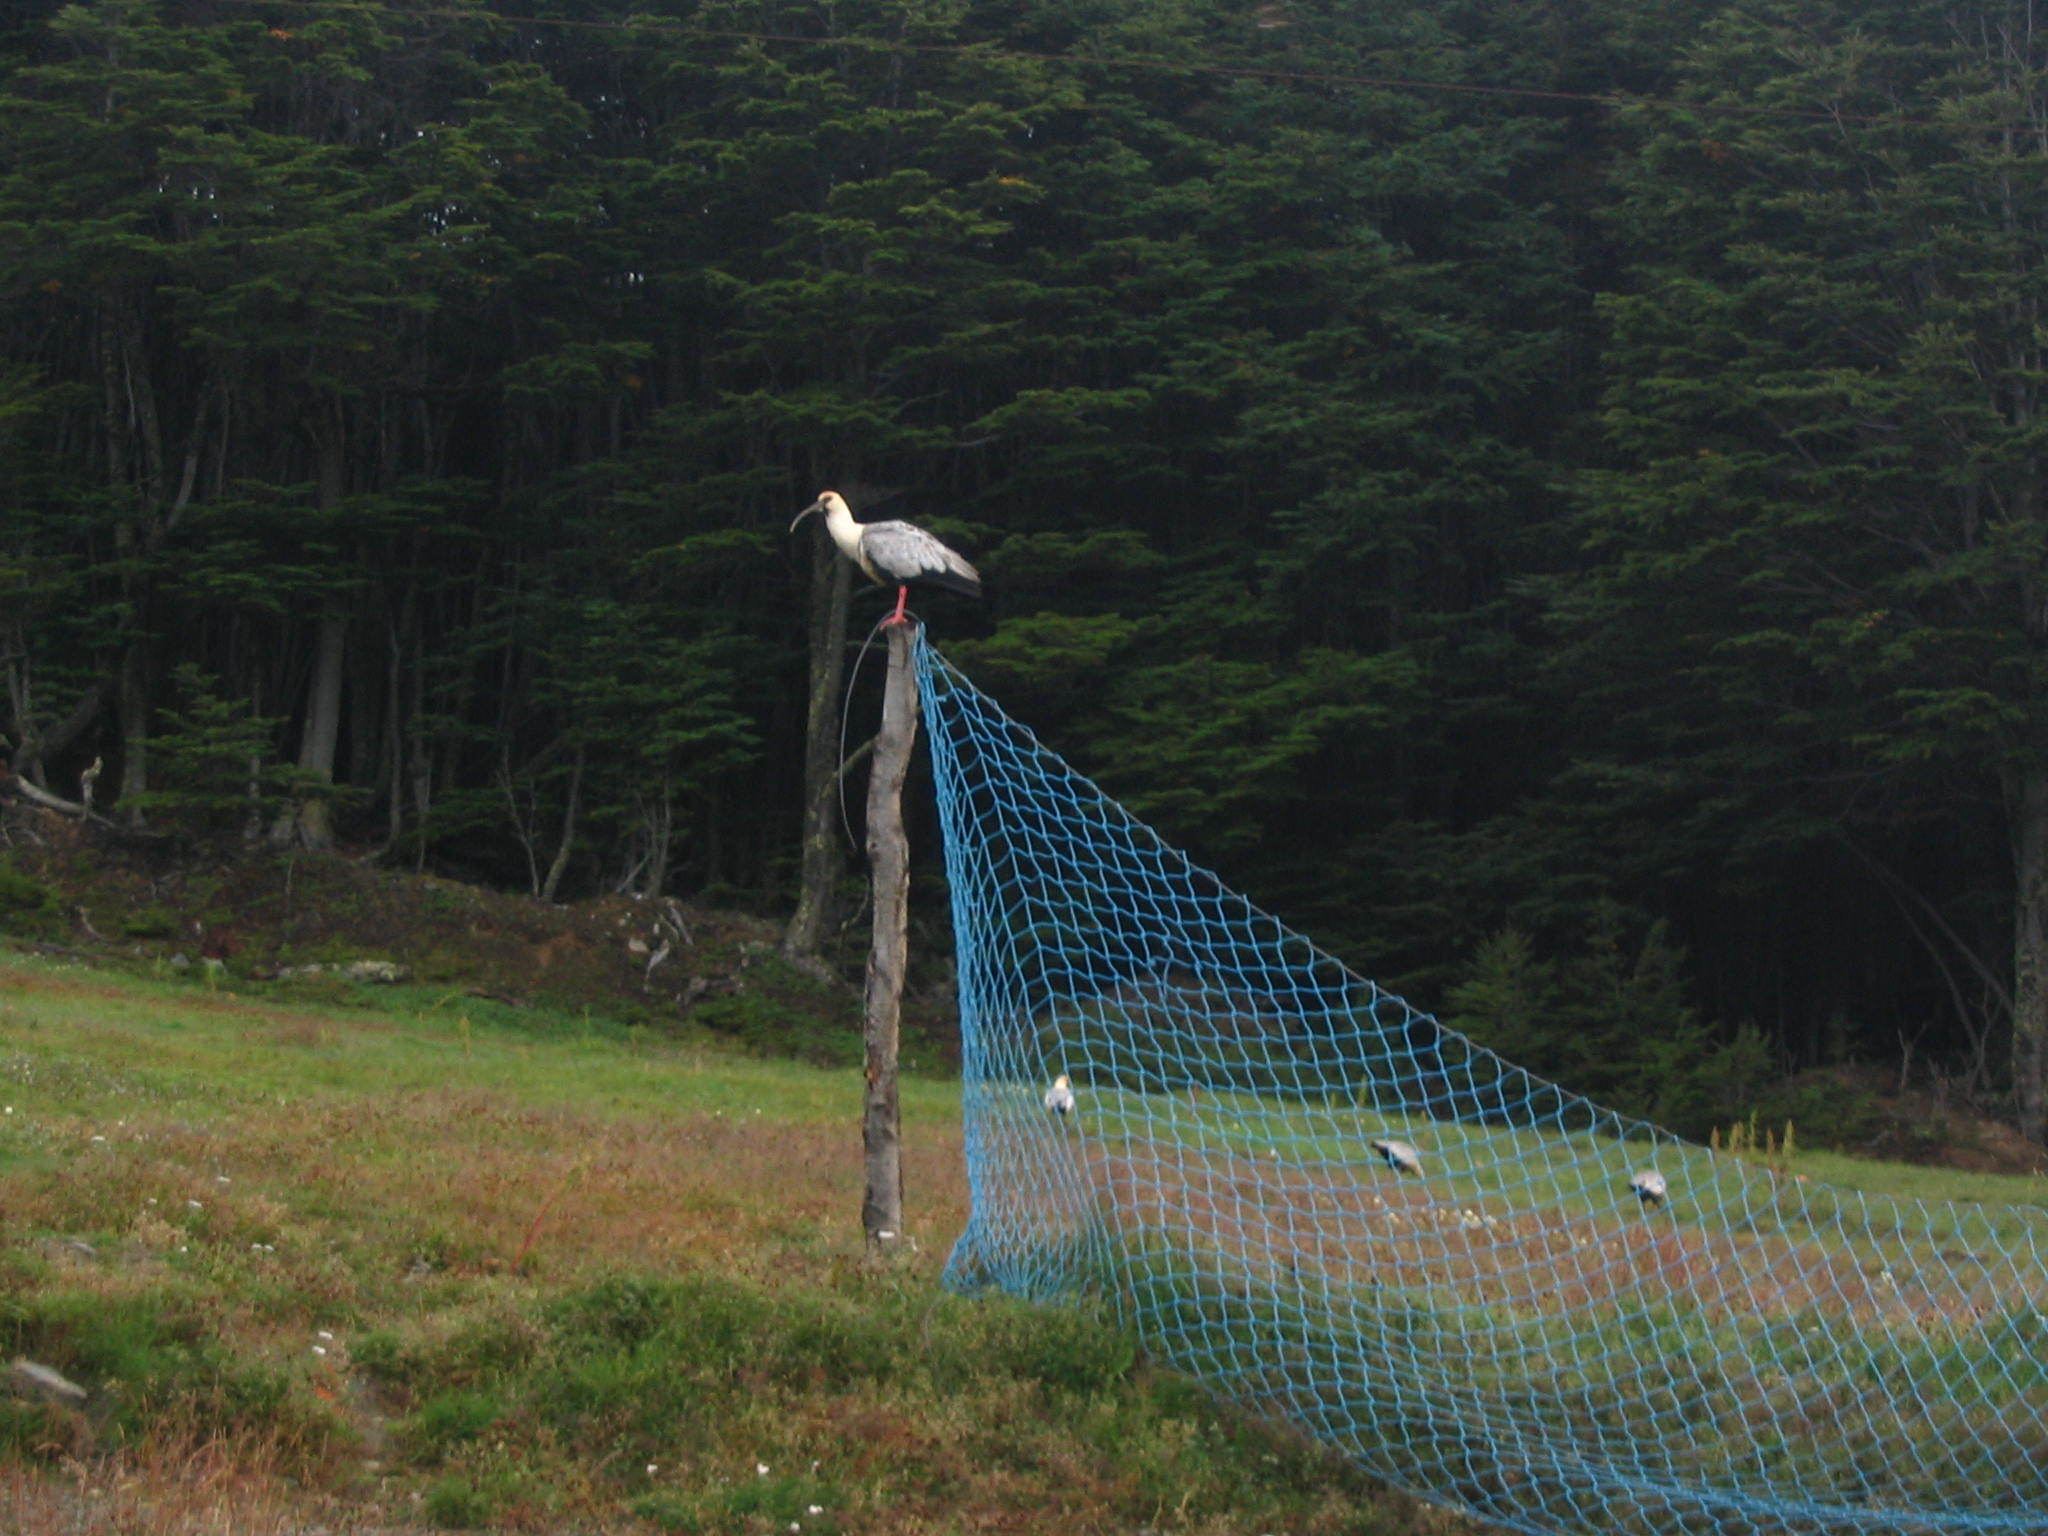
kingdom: Animalia
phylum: Chordata
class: Aves
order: Pelecaniformes
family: Threskiornithidae
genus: Theristicus
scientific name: Theristicus melanopis
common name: Black-faced ibis
